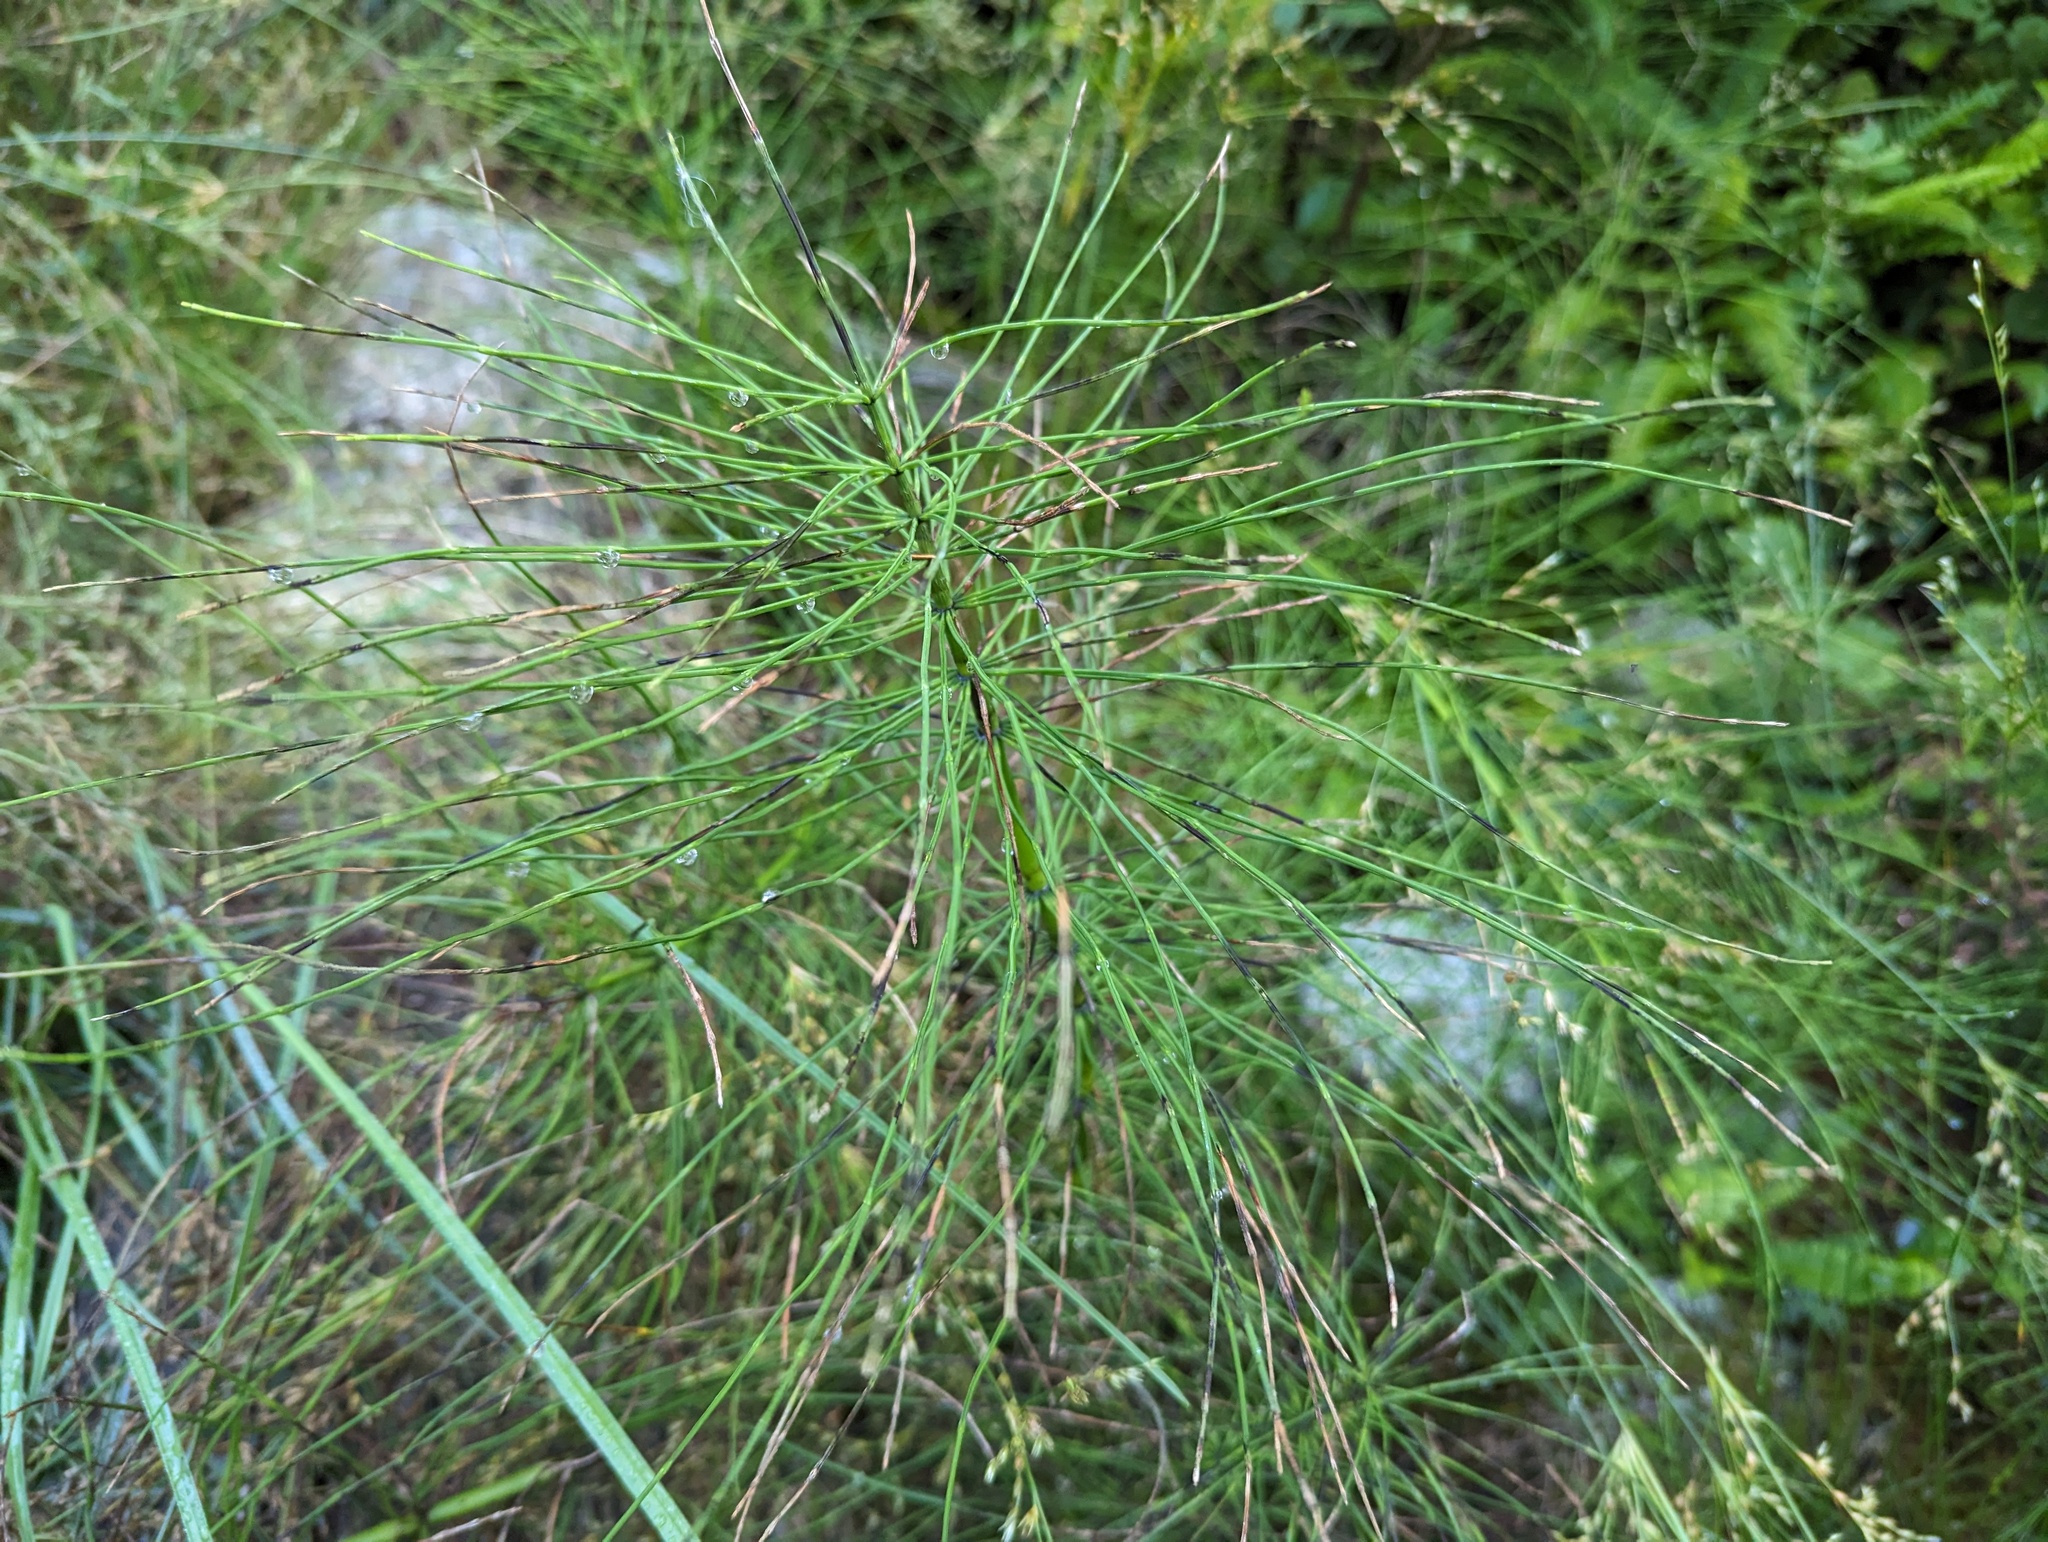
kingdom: Plantae
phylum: Tracheophyta
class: Polypodiopsida
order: Equisetales
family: Equisetaceae
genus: Equisetum
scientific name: Equisetum braunii
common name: Braun's horsetail
